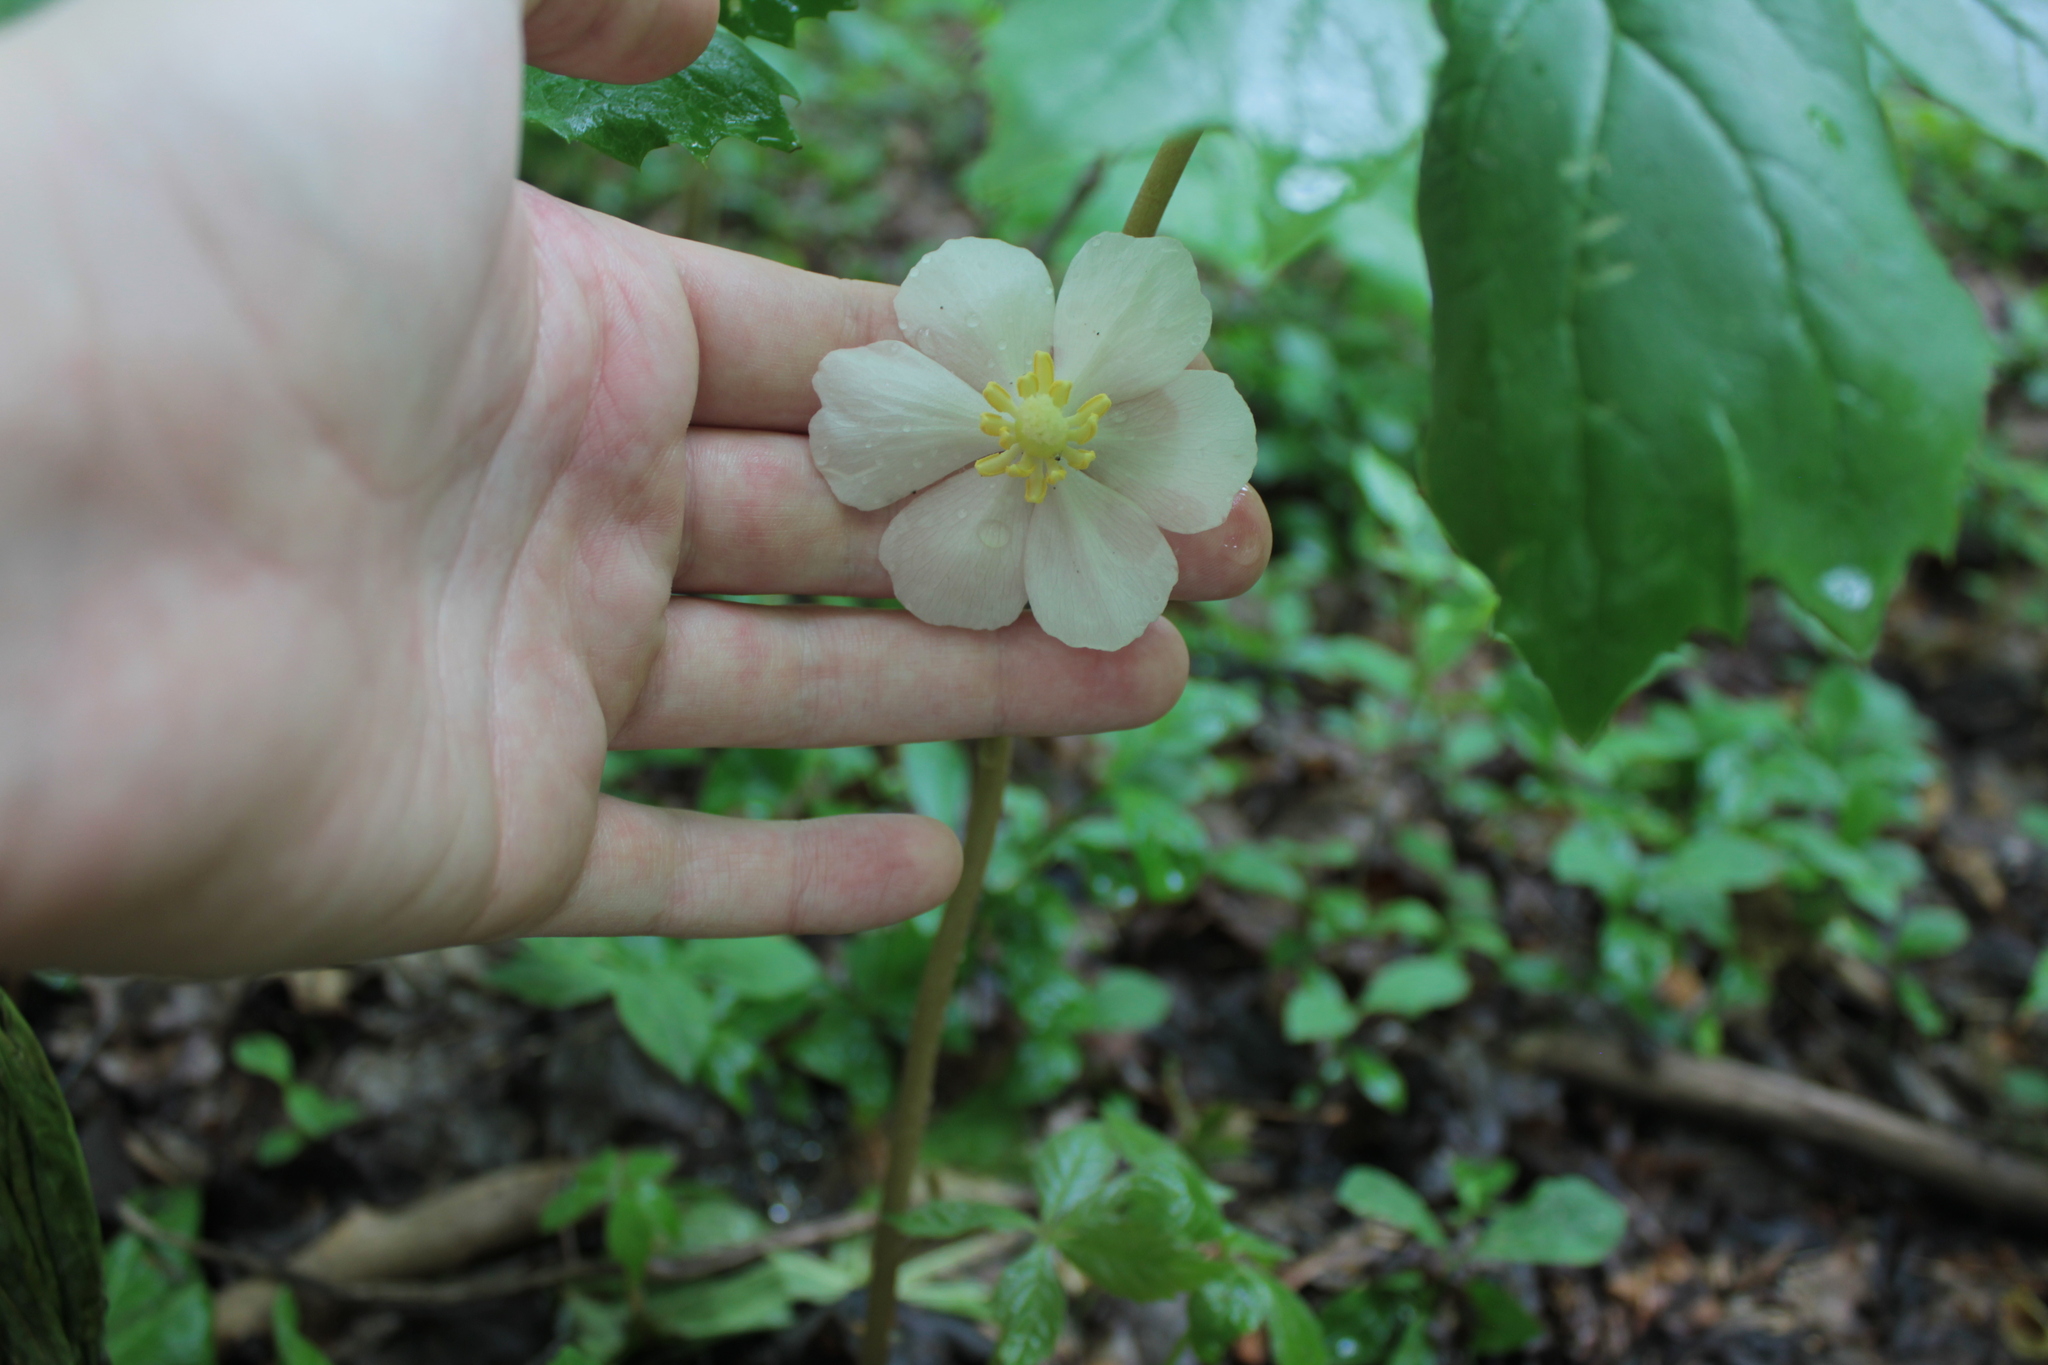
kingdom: Plantae
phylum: Tracheophyta
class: Magnoliopsida
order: Ranunculales
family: Berberidaceae
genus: Podophyllum
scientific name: Podophyllum peltatum
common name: Wild mandrake
